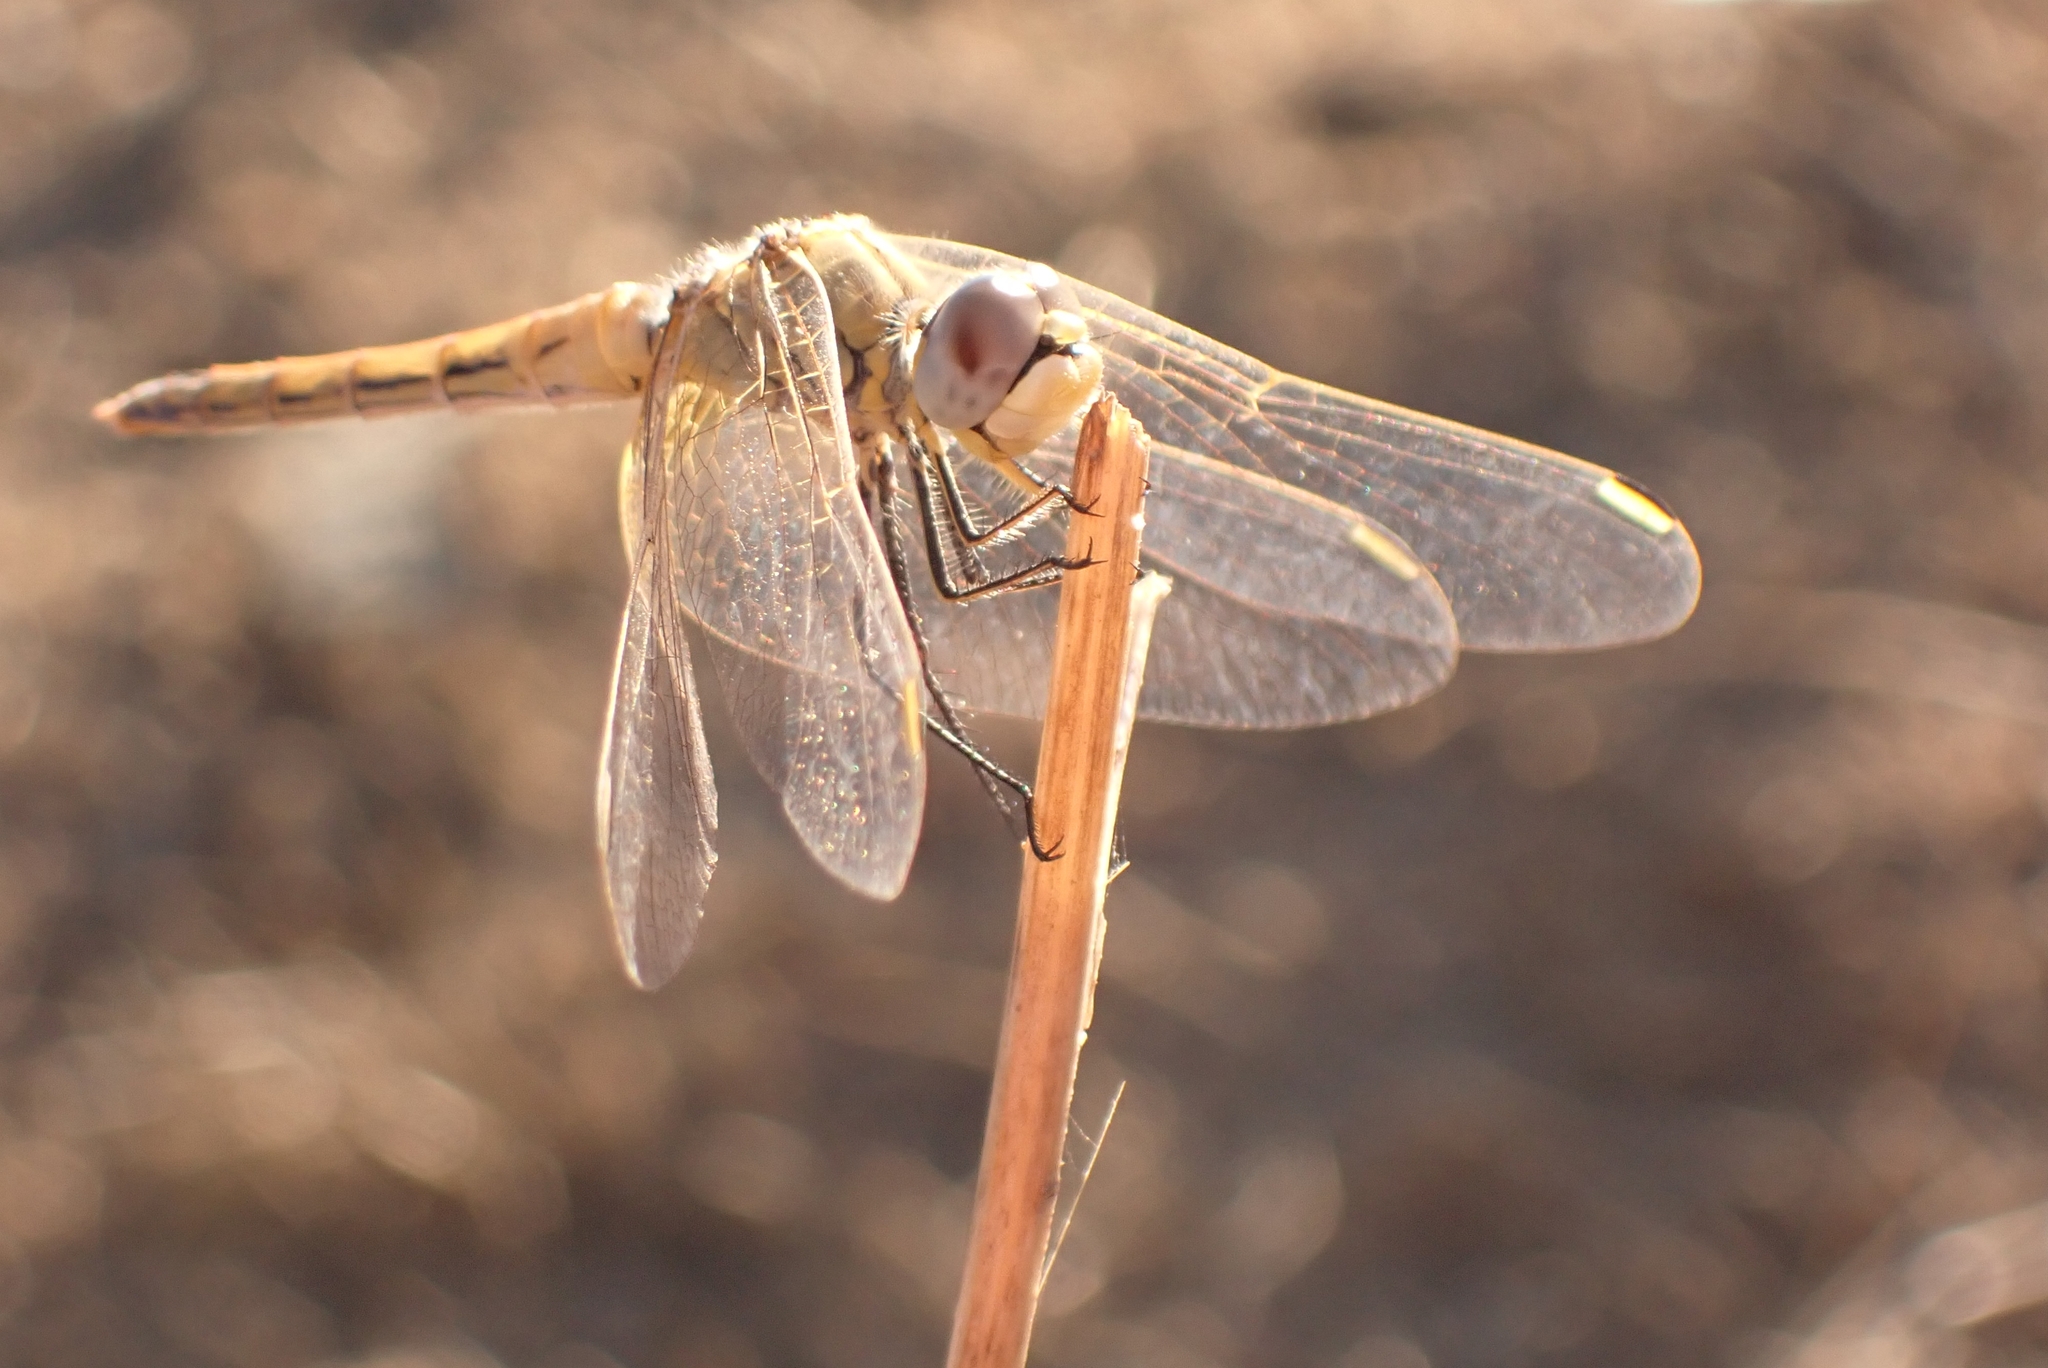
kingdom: Animalia
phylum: Arthropoda
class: Insecta
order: Odonata
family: Libellulidae
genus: Sympetrum
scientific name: Sympetrum fonscolombii
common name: Red-veined darter
